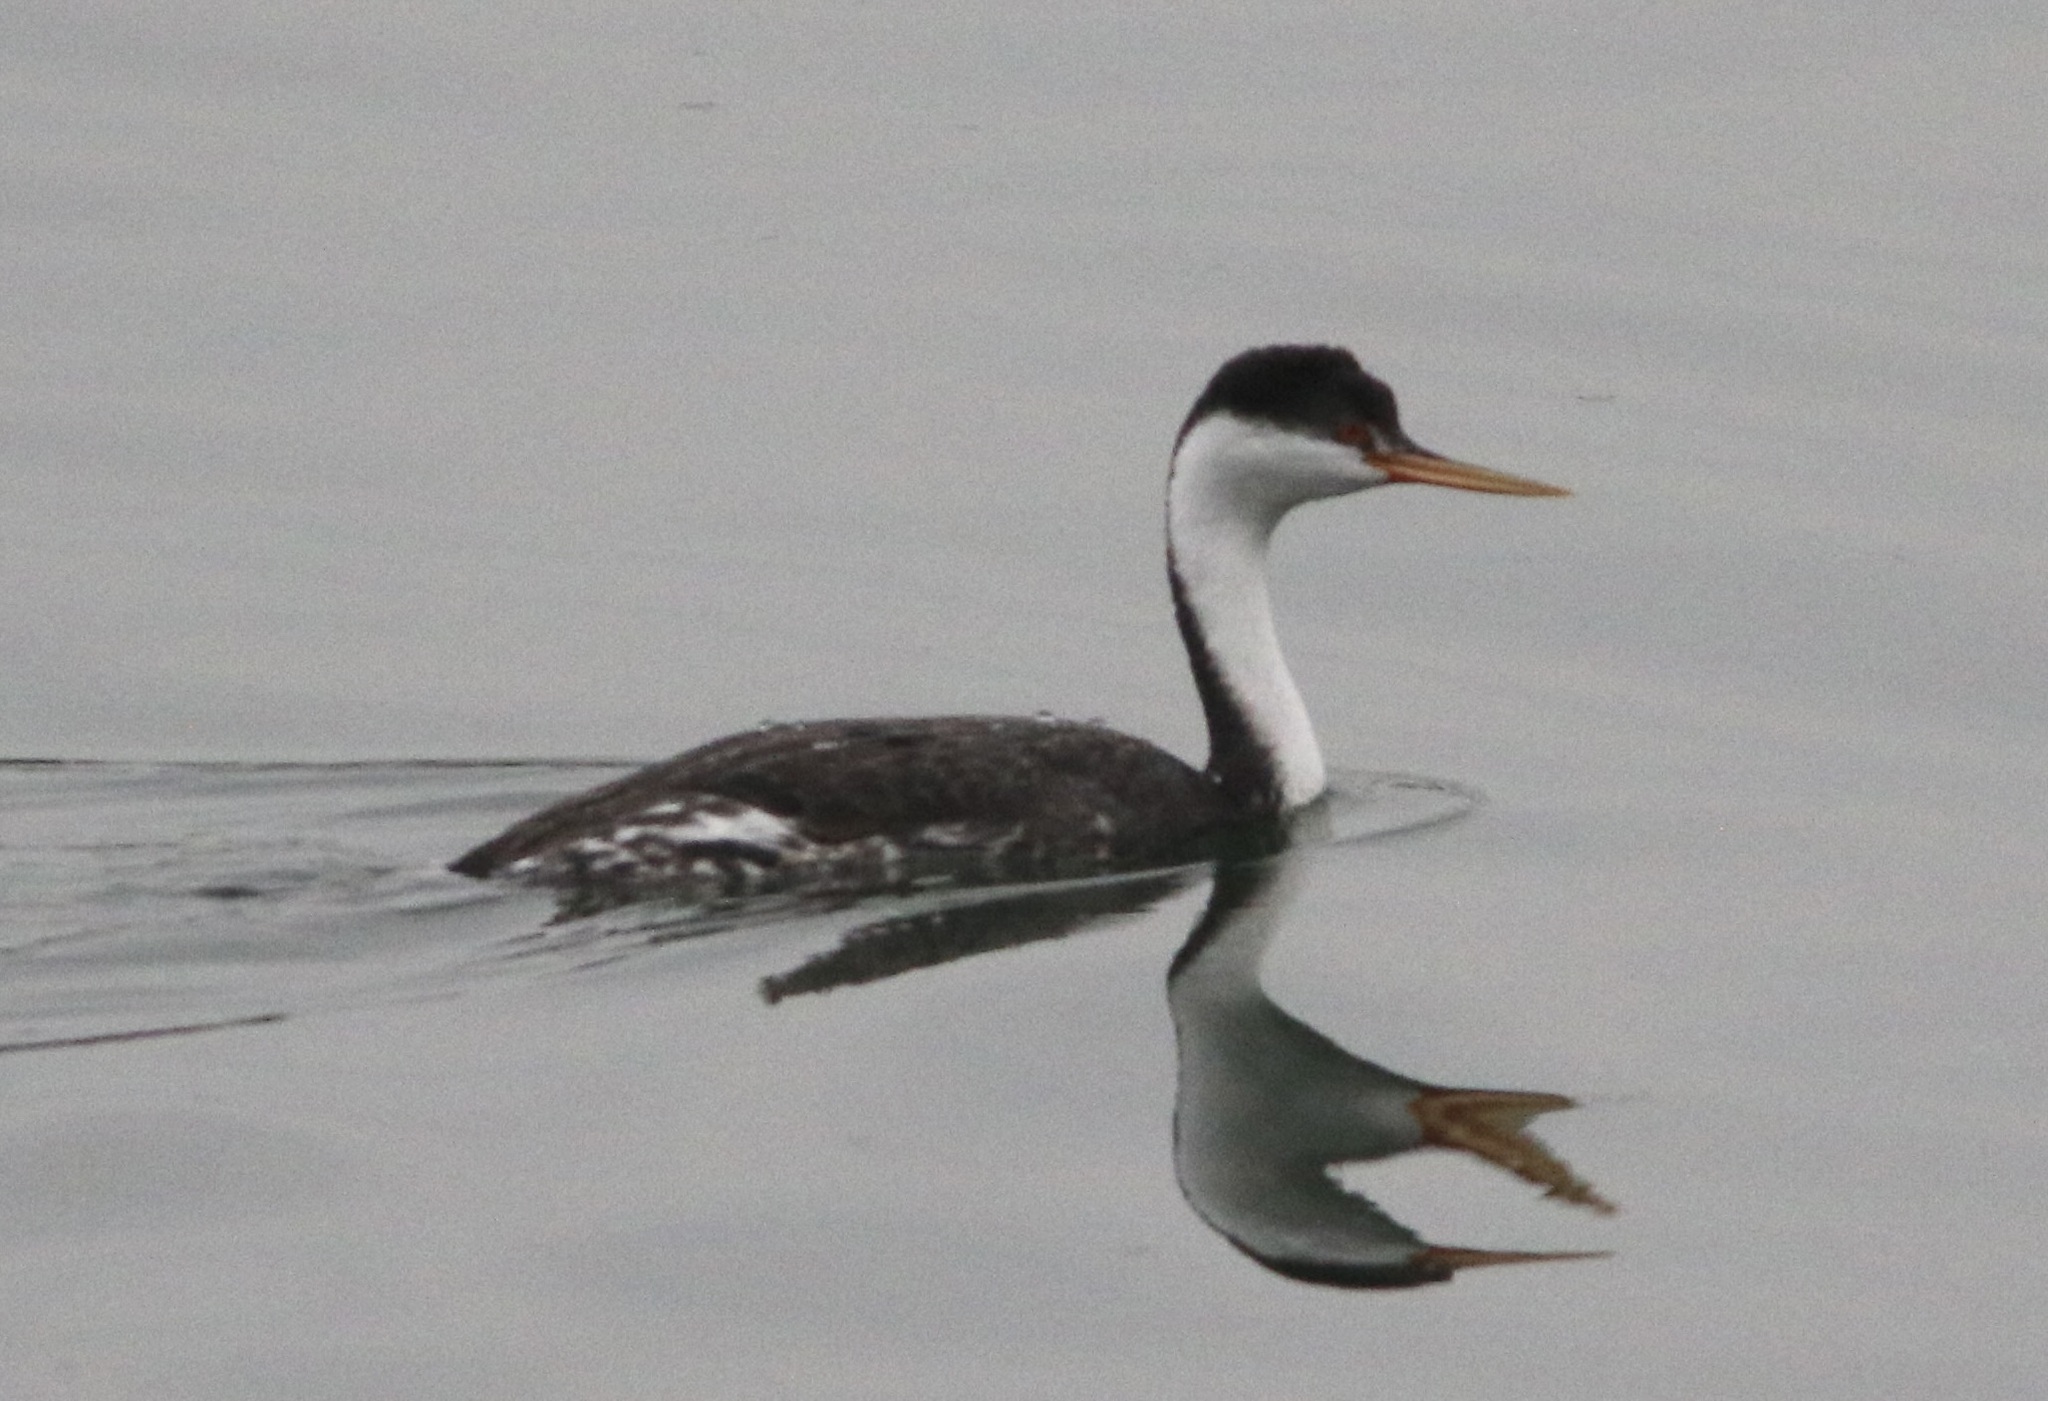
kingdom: Animalia
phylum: Chordata
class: Aves
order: Podicipediformes
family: Podicipedidae
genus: Aechmophorus
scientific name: Aechmophorus clarkii
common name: Clark's grebe
